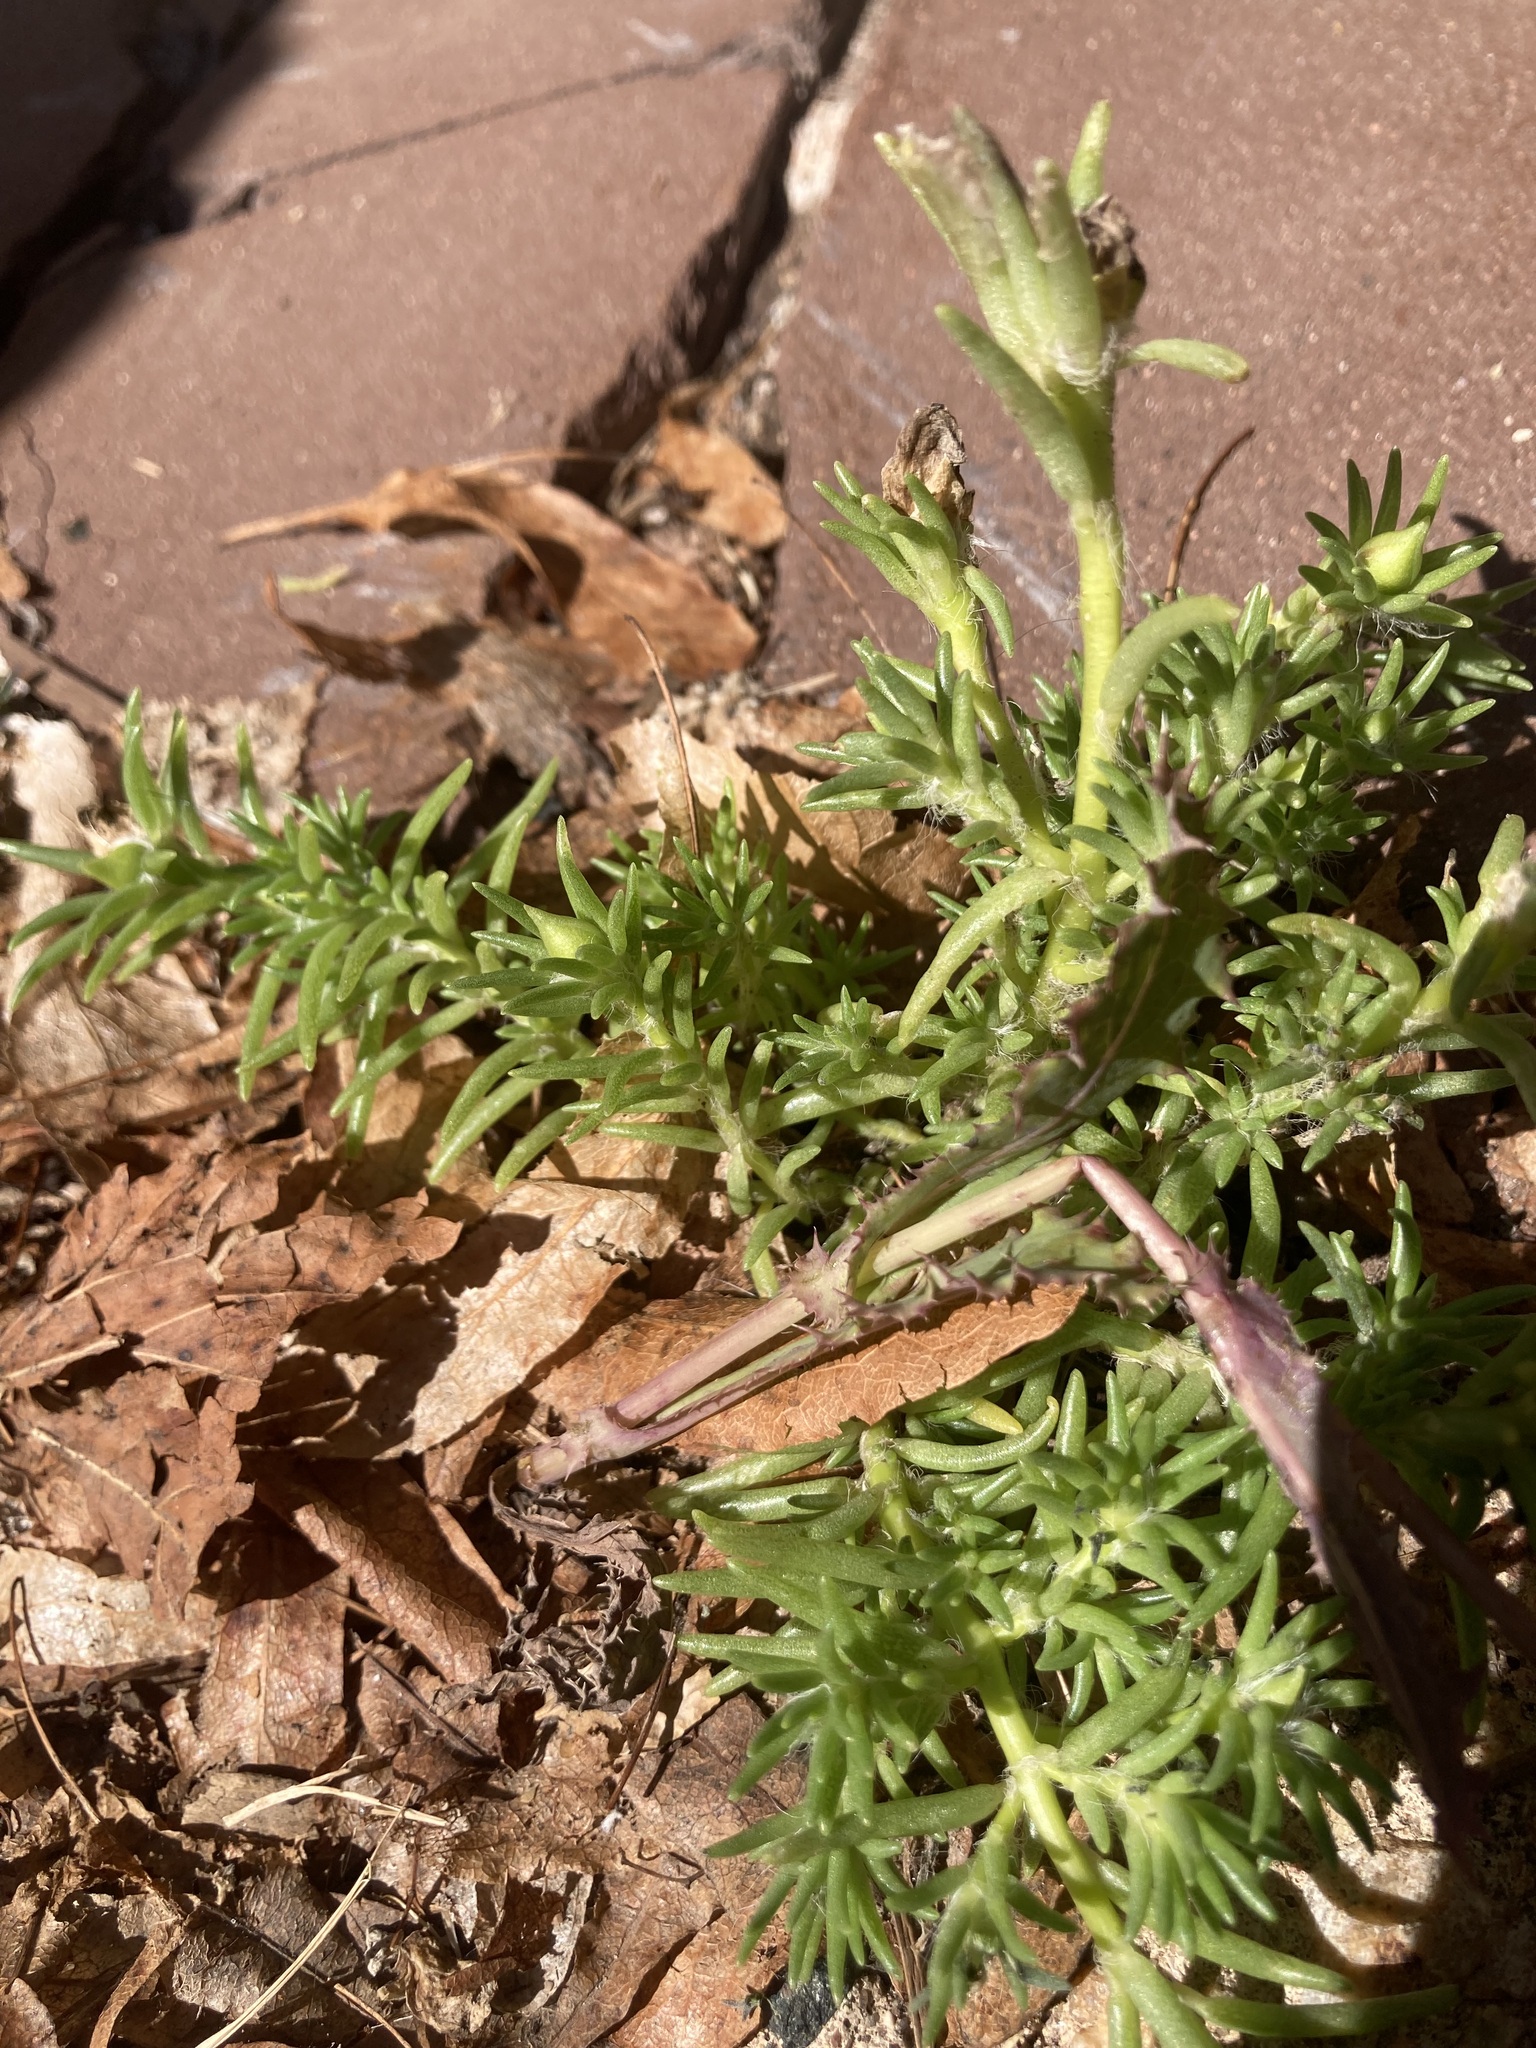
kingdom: Plantae
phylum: Tracheophyta
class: Magnoliopsida
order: Caryophyllales
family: Portulacaceae
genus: Portulaca
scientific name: Portulaca grandiflora
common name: Moss-rose
